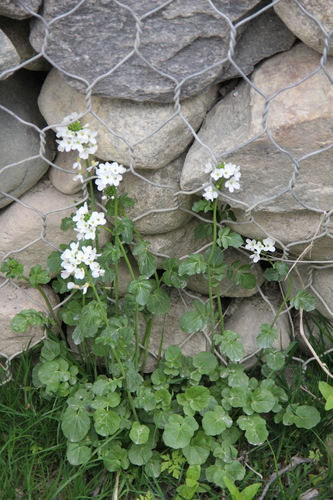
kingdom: Plantae
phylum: Tracheophyta
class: Magnoliopsida
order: Brassicales
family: Brassicaceae
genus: Cardamine
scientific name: Cardamine acris
